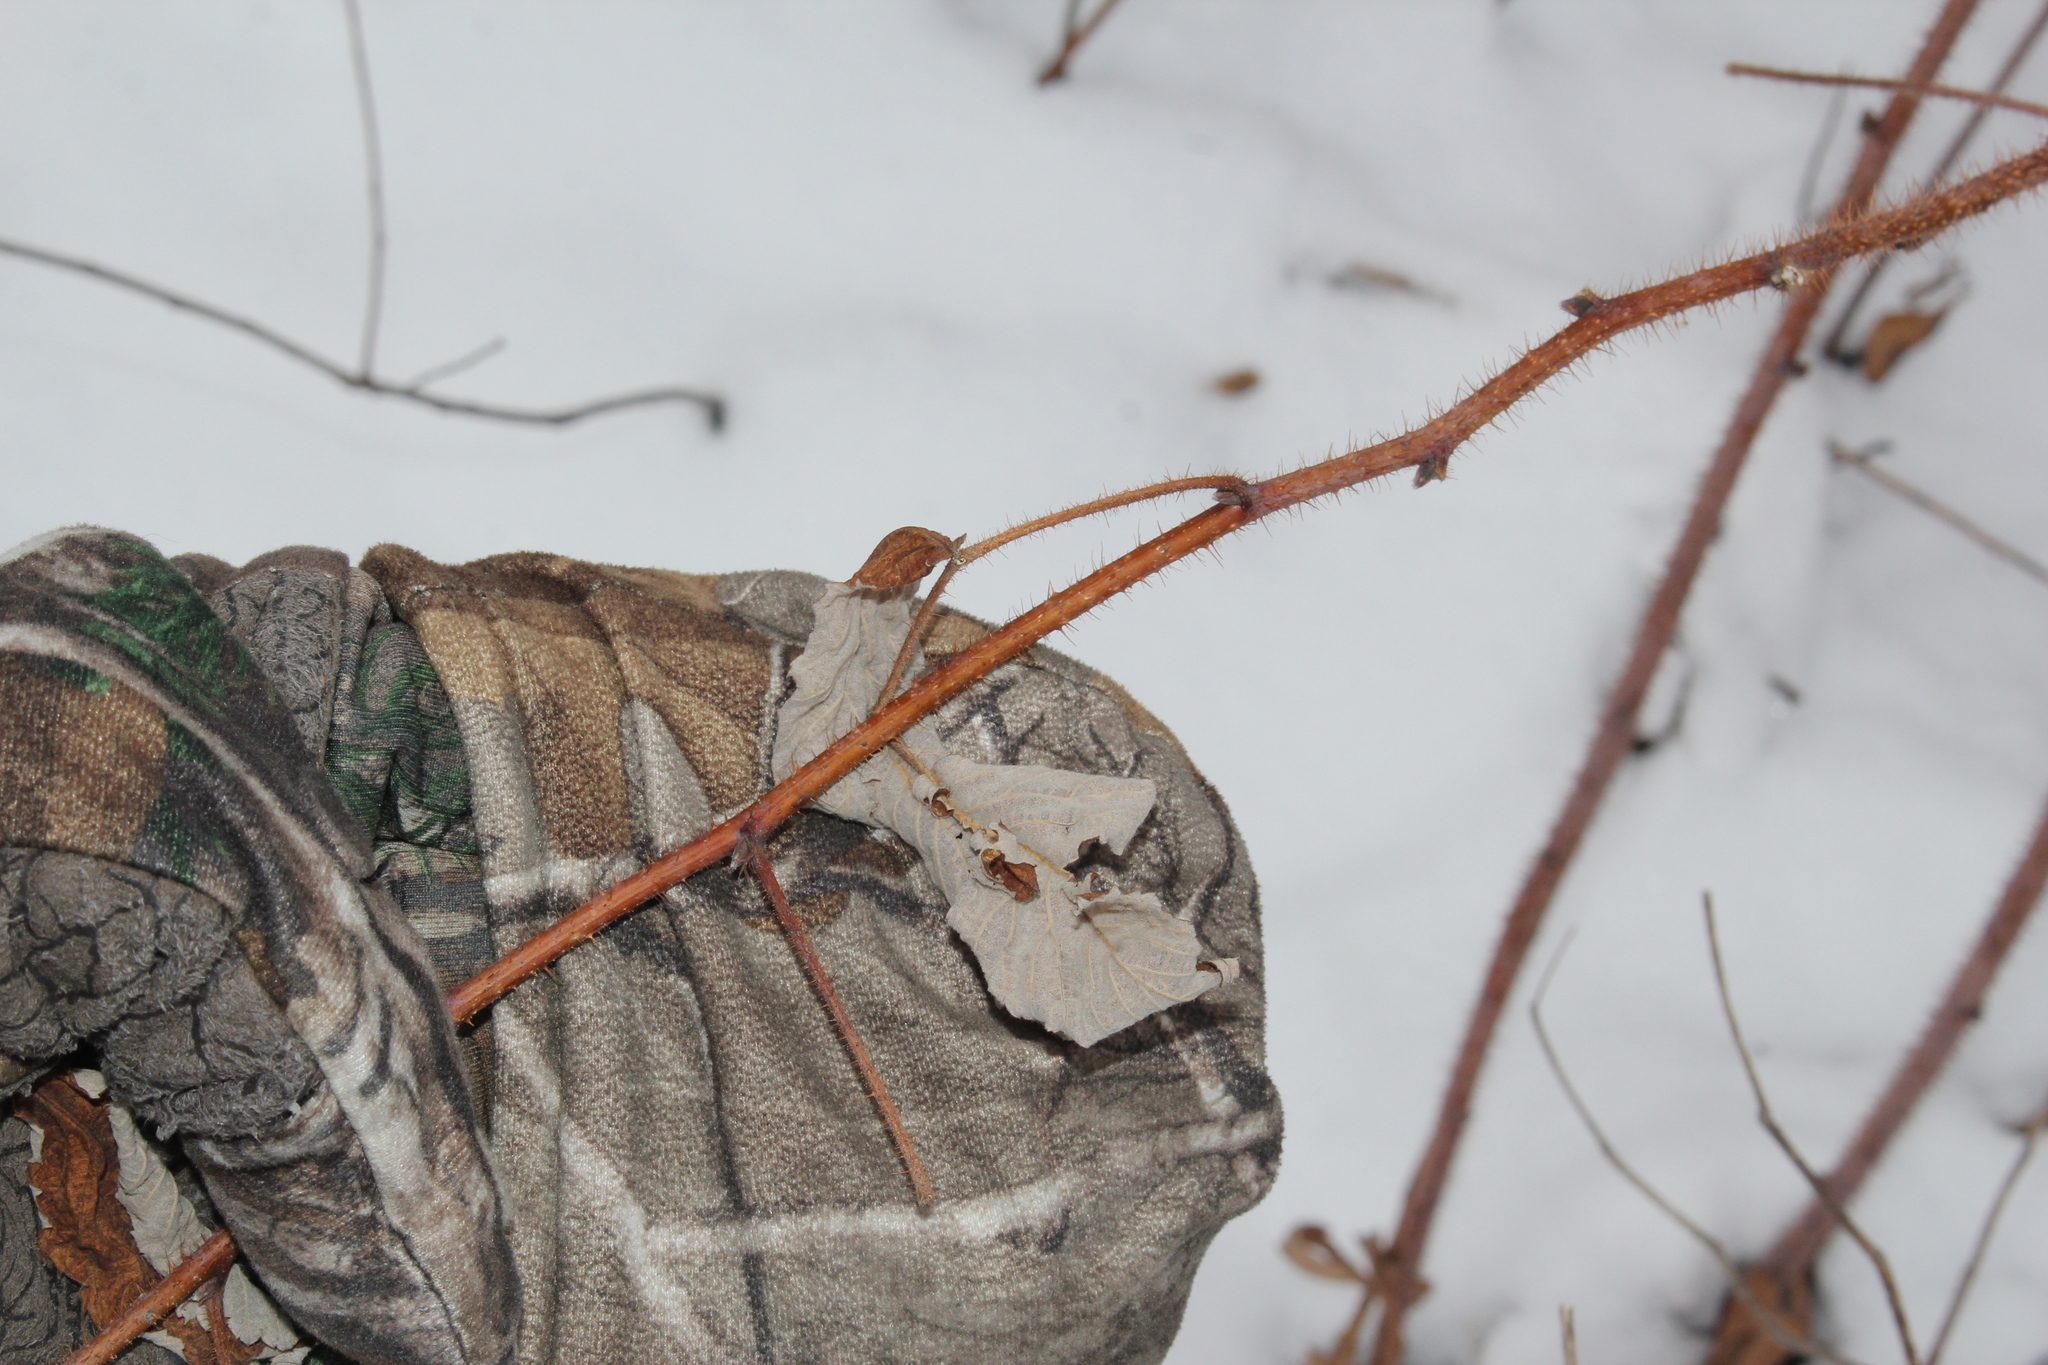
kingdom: Plantae
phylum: Tracheophyta
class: Magnoliopsida
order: Rosales
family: Rosaceae
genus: Rubus
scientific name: Rubus idaeus
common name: Raspberry
